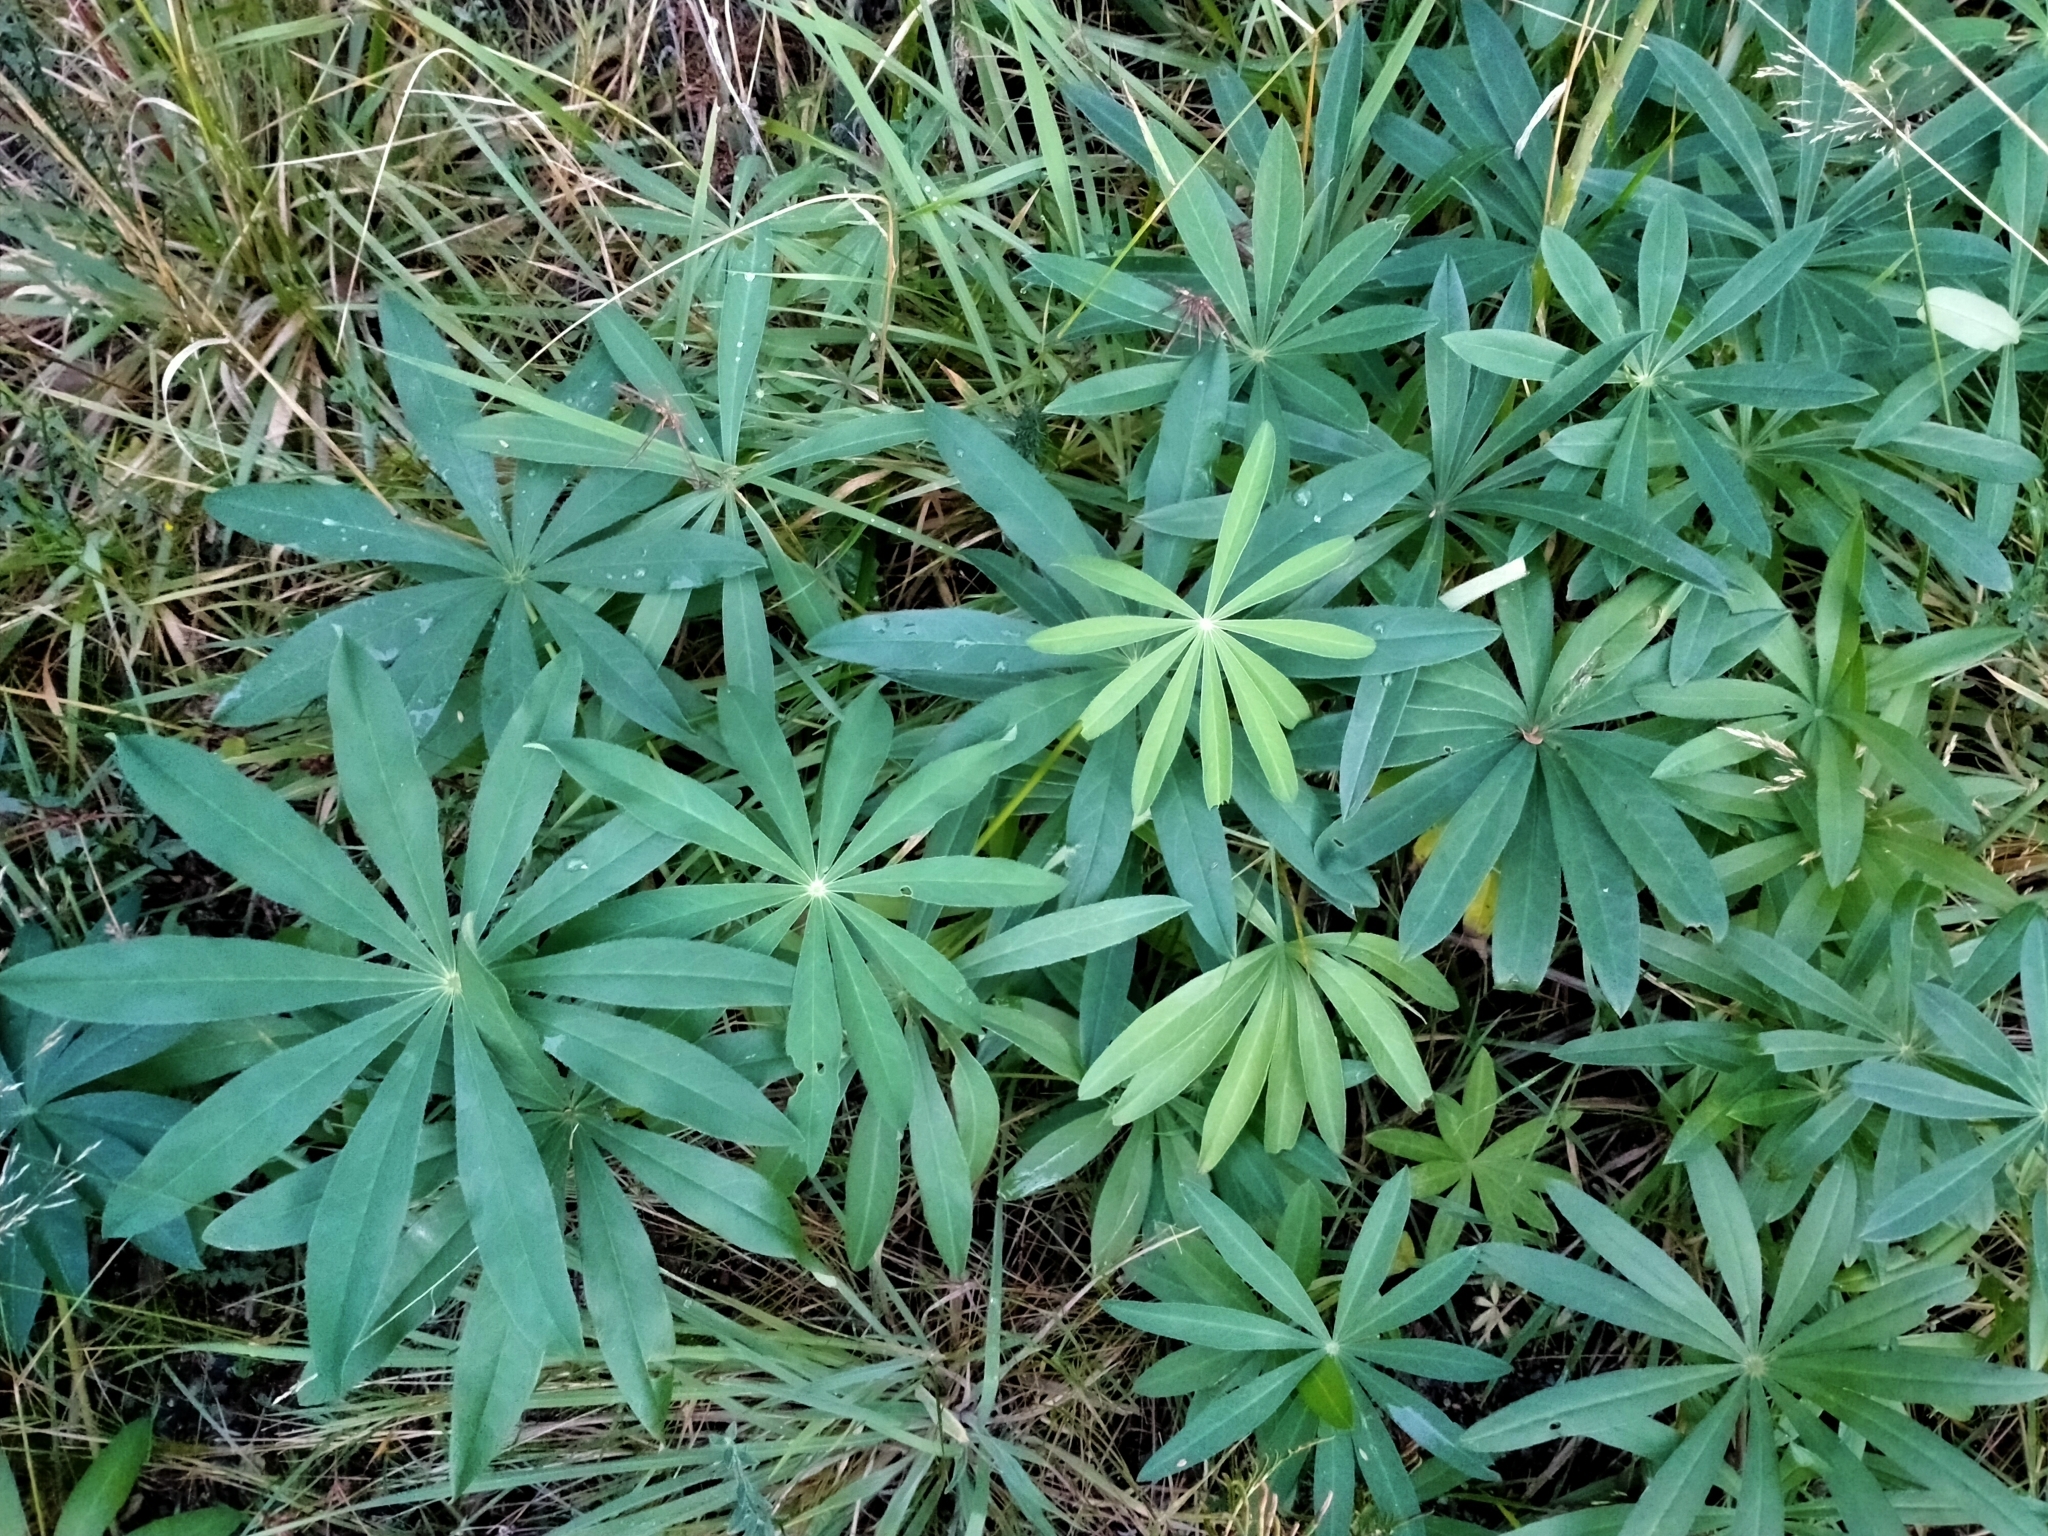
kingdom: Plantae
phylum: Tracheophyta
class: Magnoliopsida
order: Fabales
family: Fabaceae
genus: Lupinus
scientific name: Lupinus polyphyllus
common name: Garden lupin
